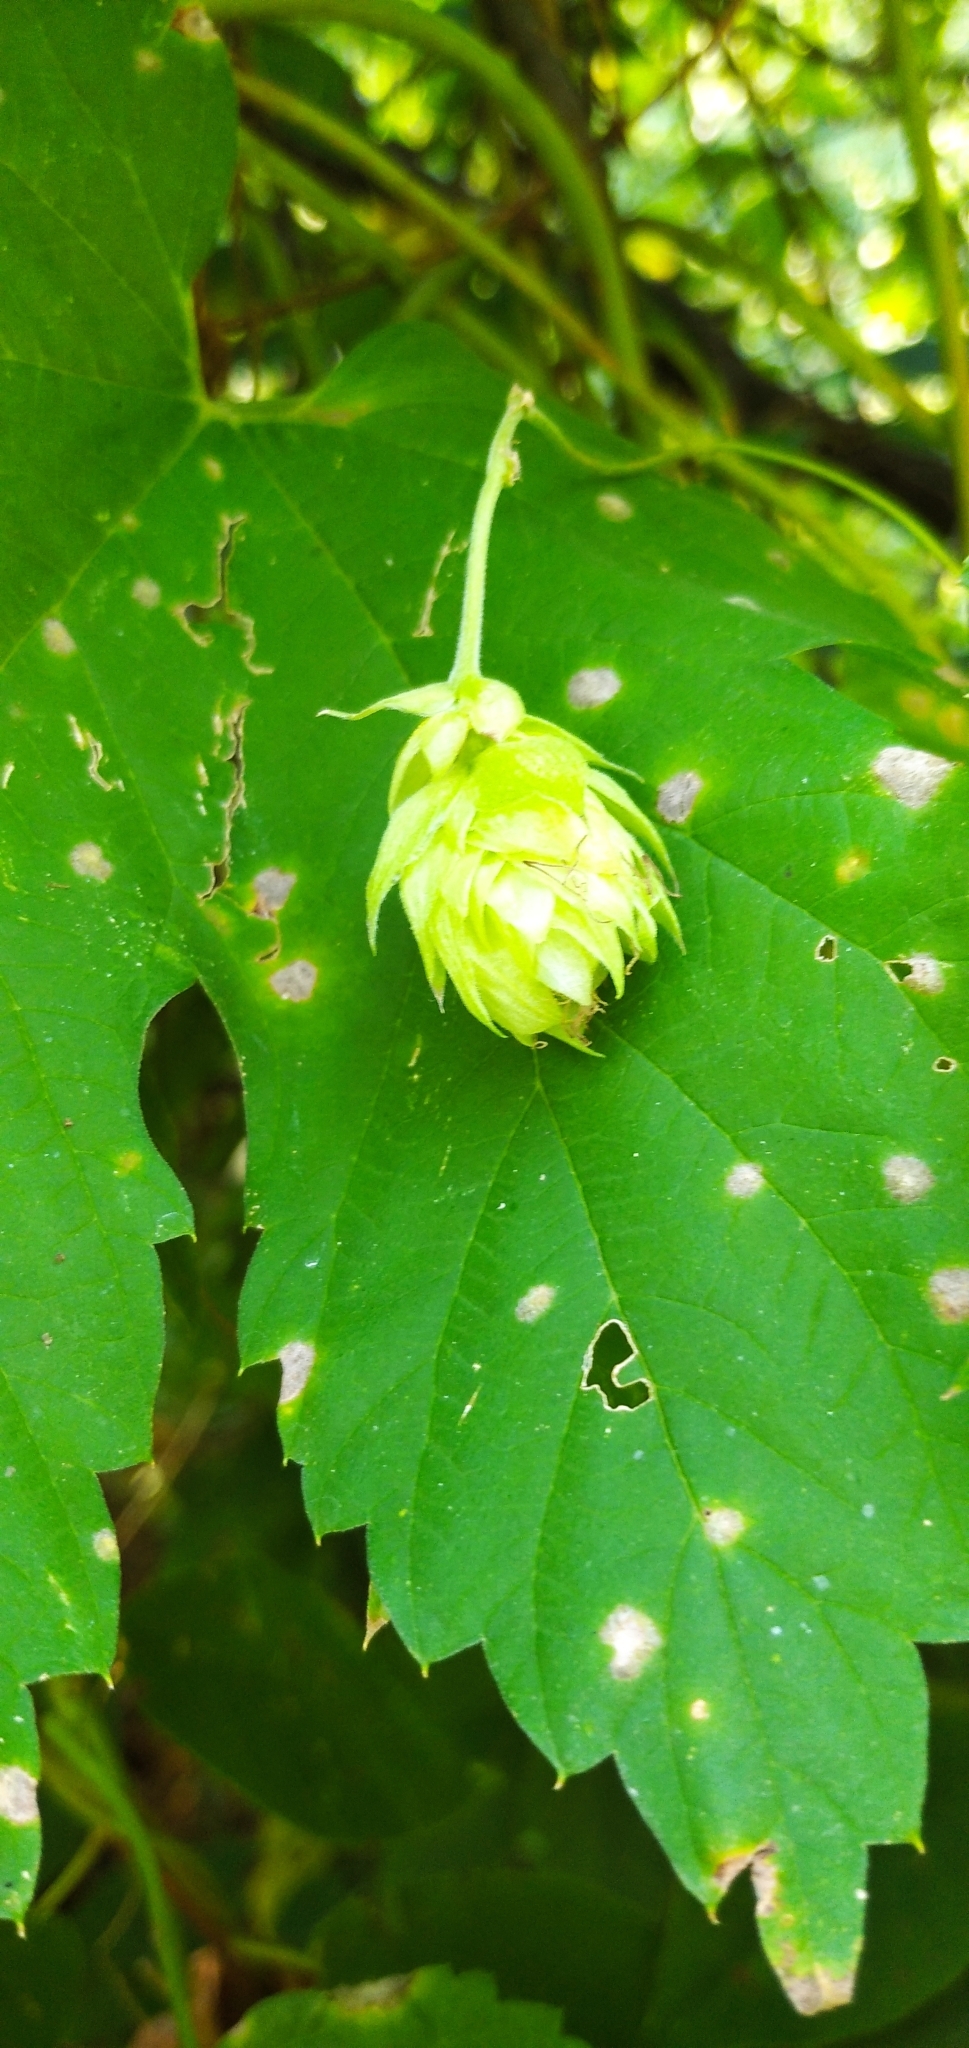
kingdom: Plantae
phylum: Tracheophyta
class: Magnoliopsida
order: Rosales
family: Cannabaceae
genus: Humulus
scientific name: Humulus lupulus
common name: Hop
